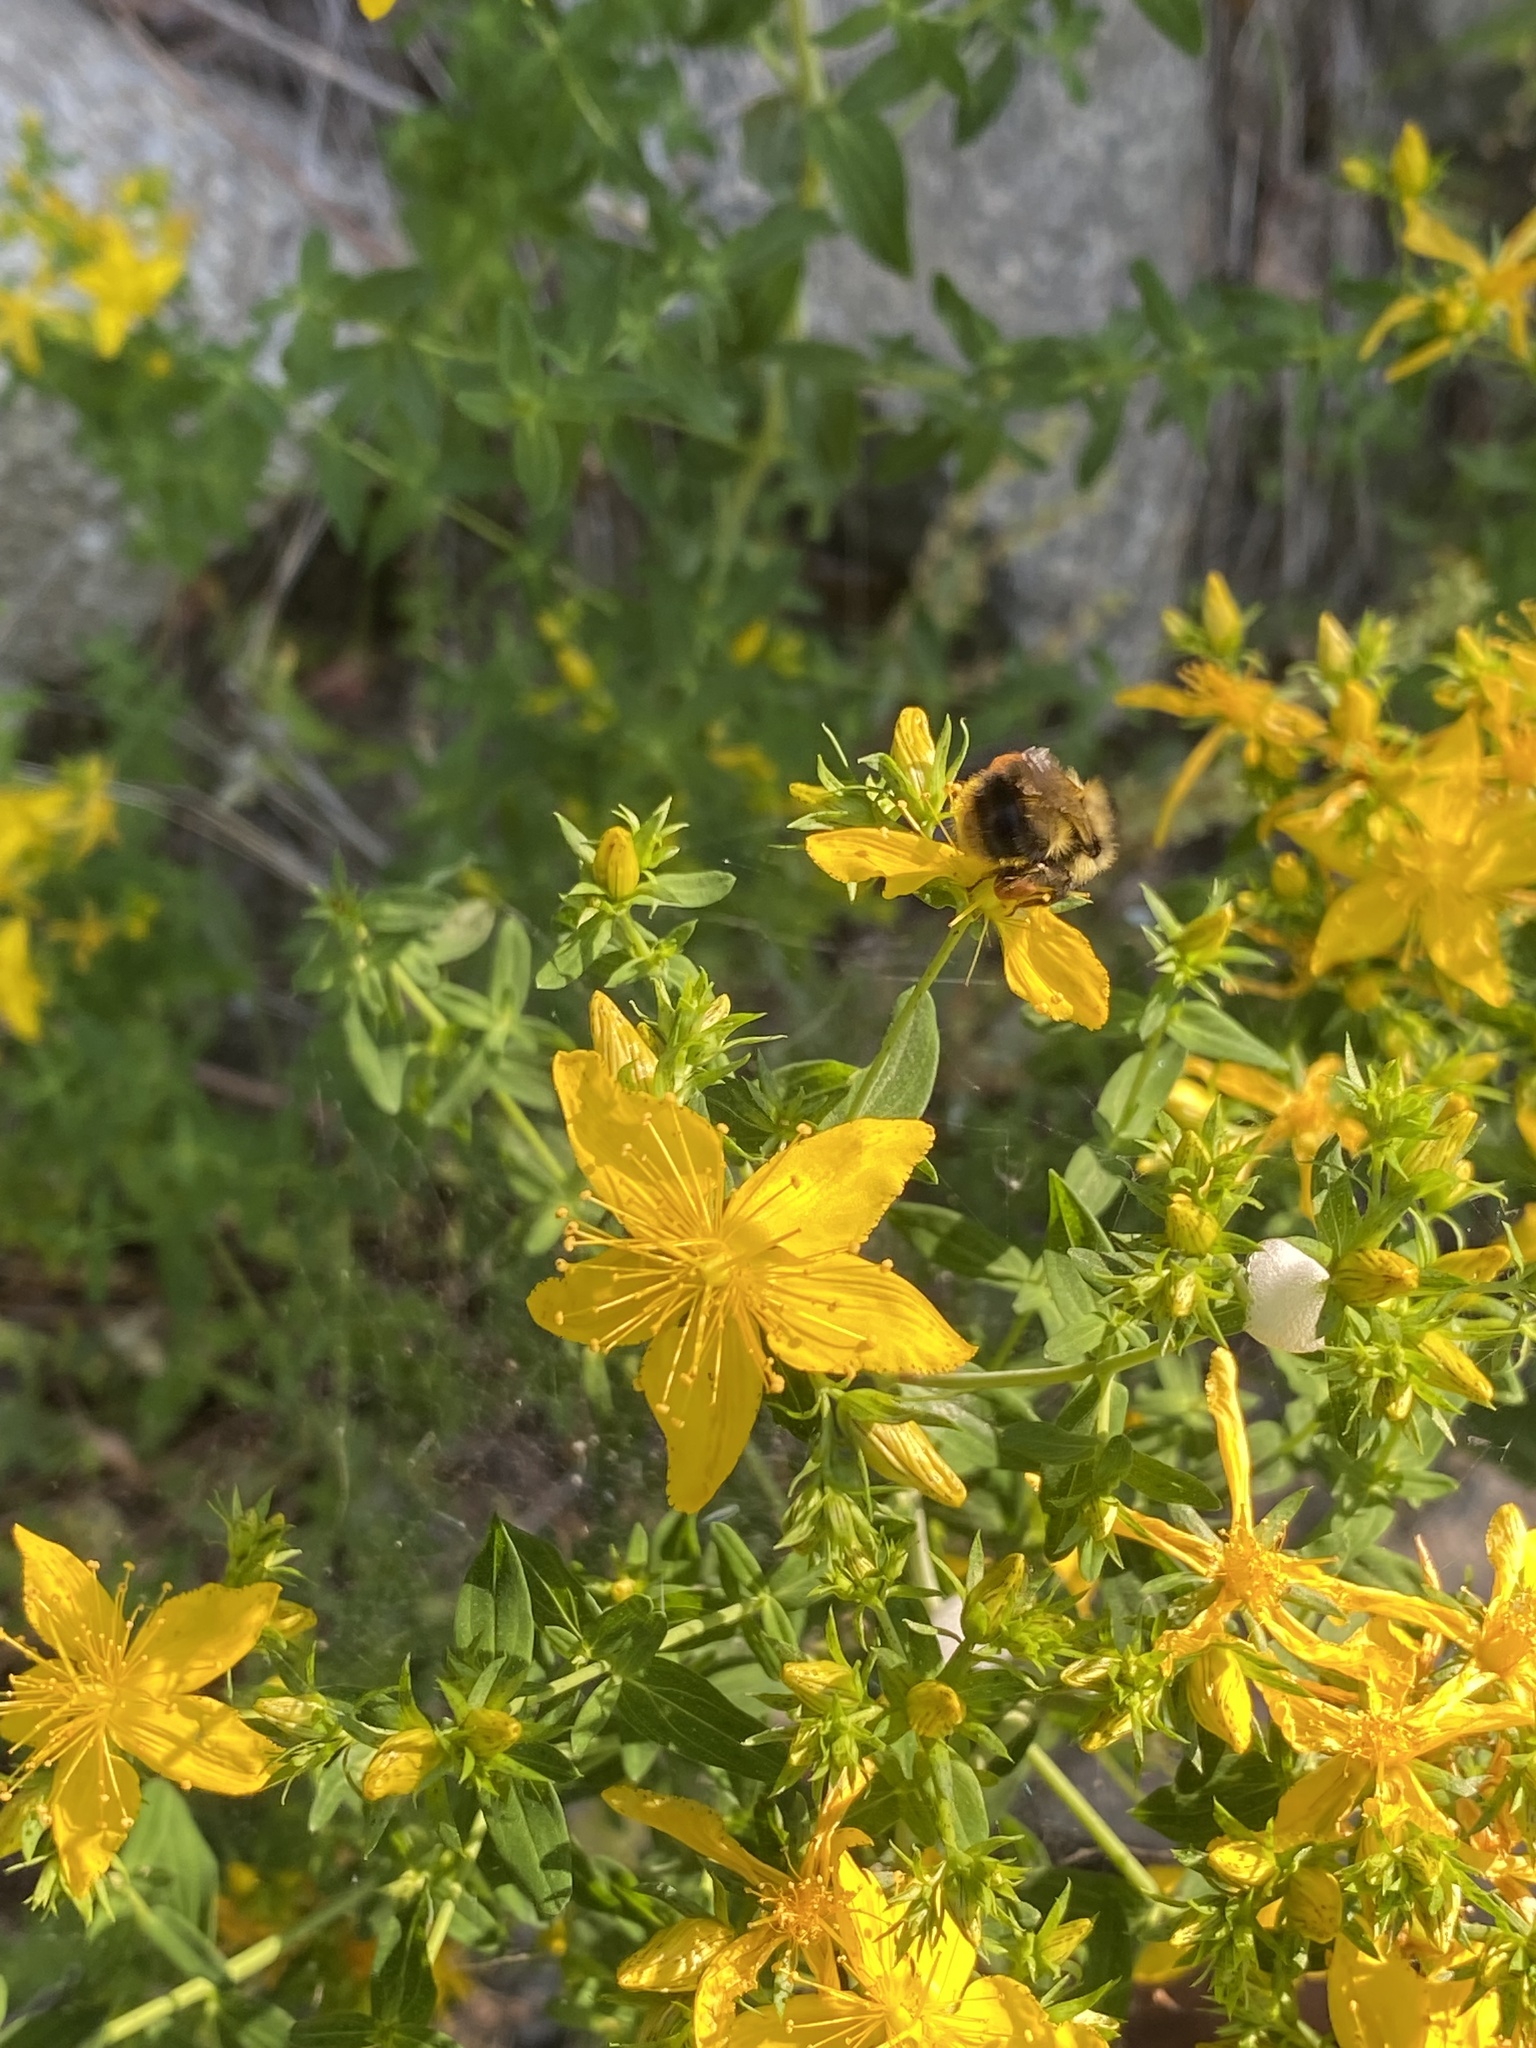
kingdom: Plantae
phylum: Tracheophyta
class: Magnoliopsida
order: Malpighiales
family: Hypericaceae
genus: Hypericum
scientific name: Hypericum perforatum
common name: Common st. johnswort
